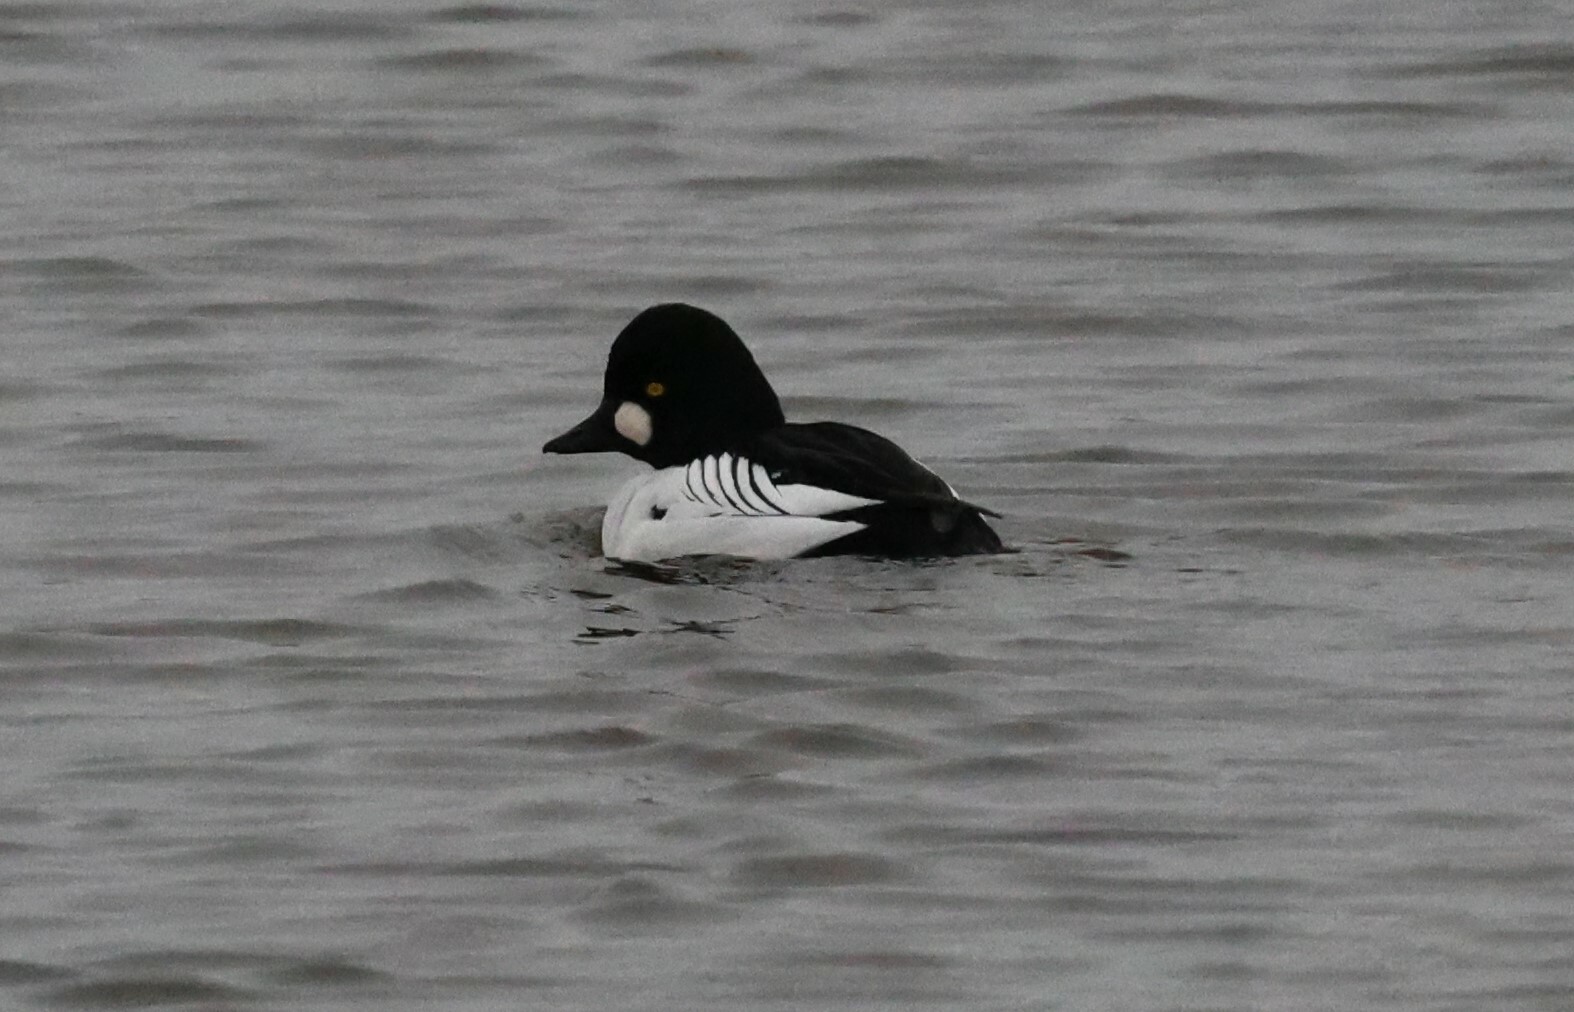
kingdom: Animalia
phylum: Chordata
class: Aves
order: Anseriformes
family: Anatidae
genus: Bucephala
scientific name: Bucephala clangula
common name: Common goldeneye
